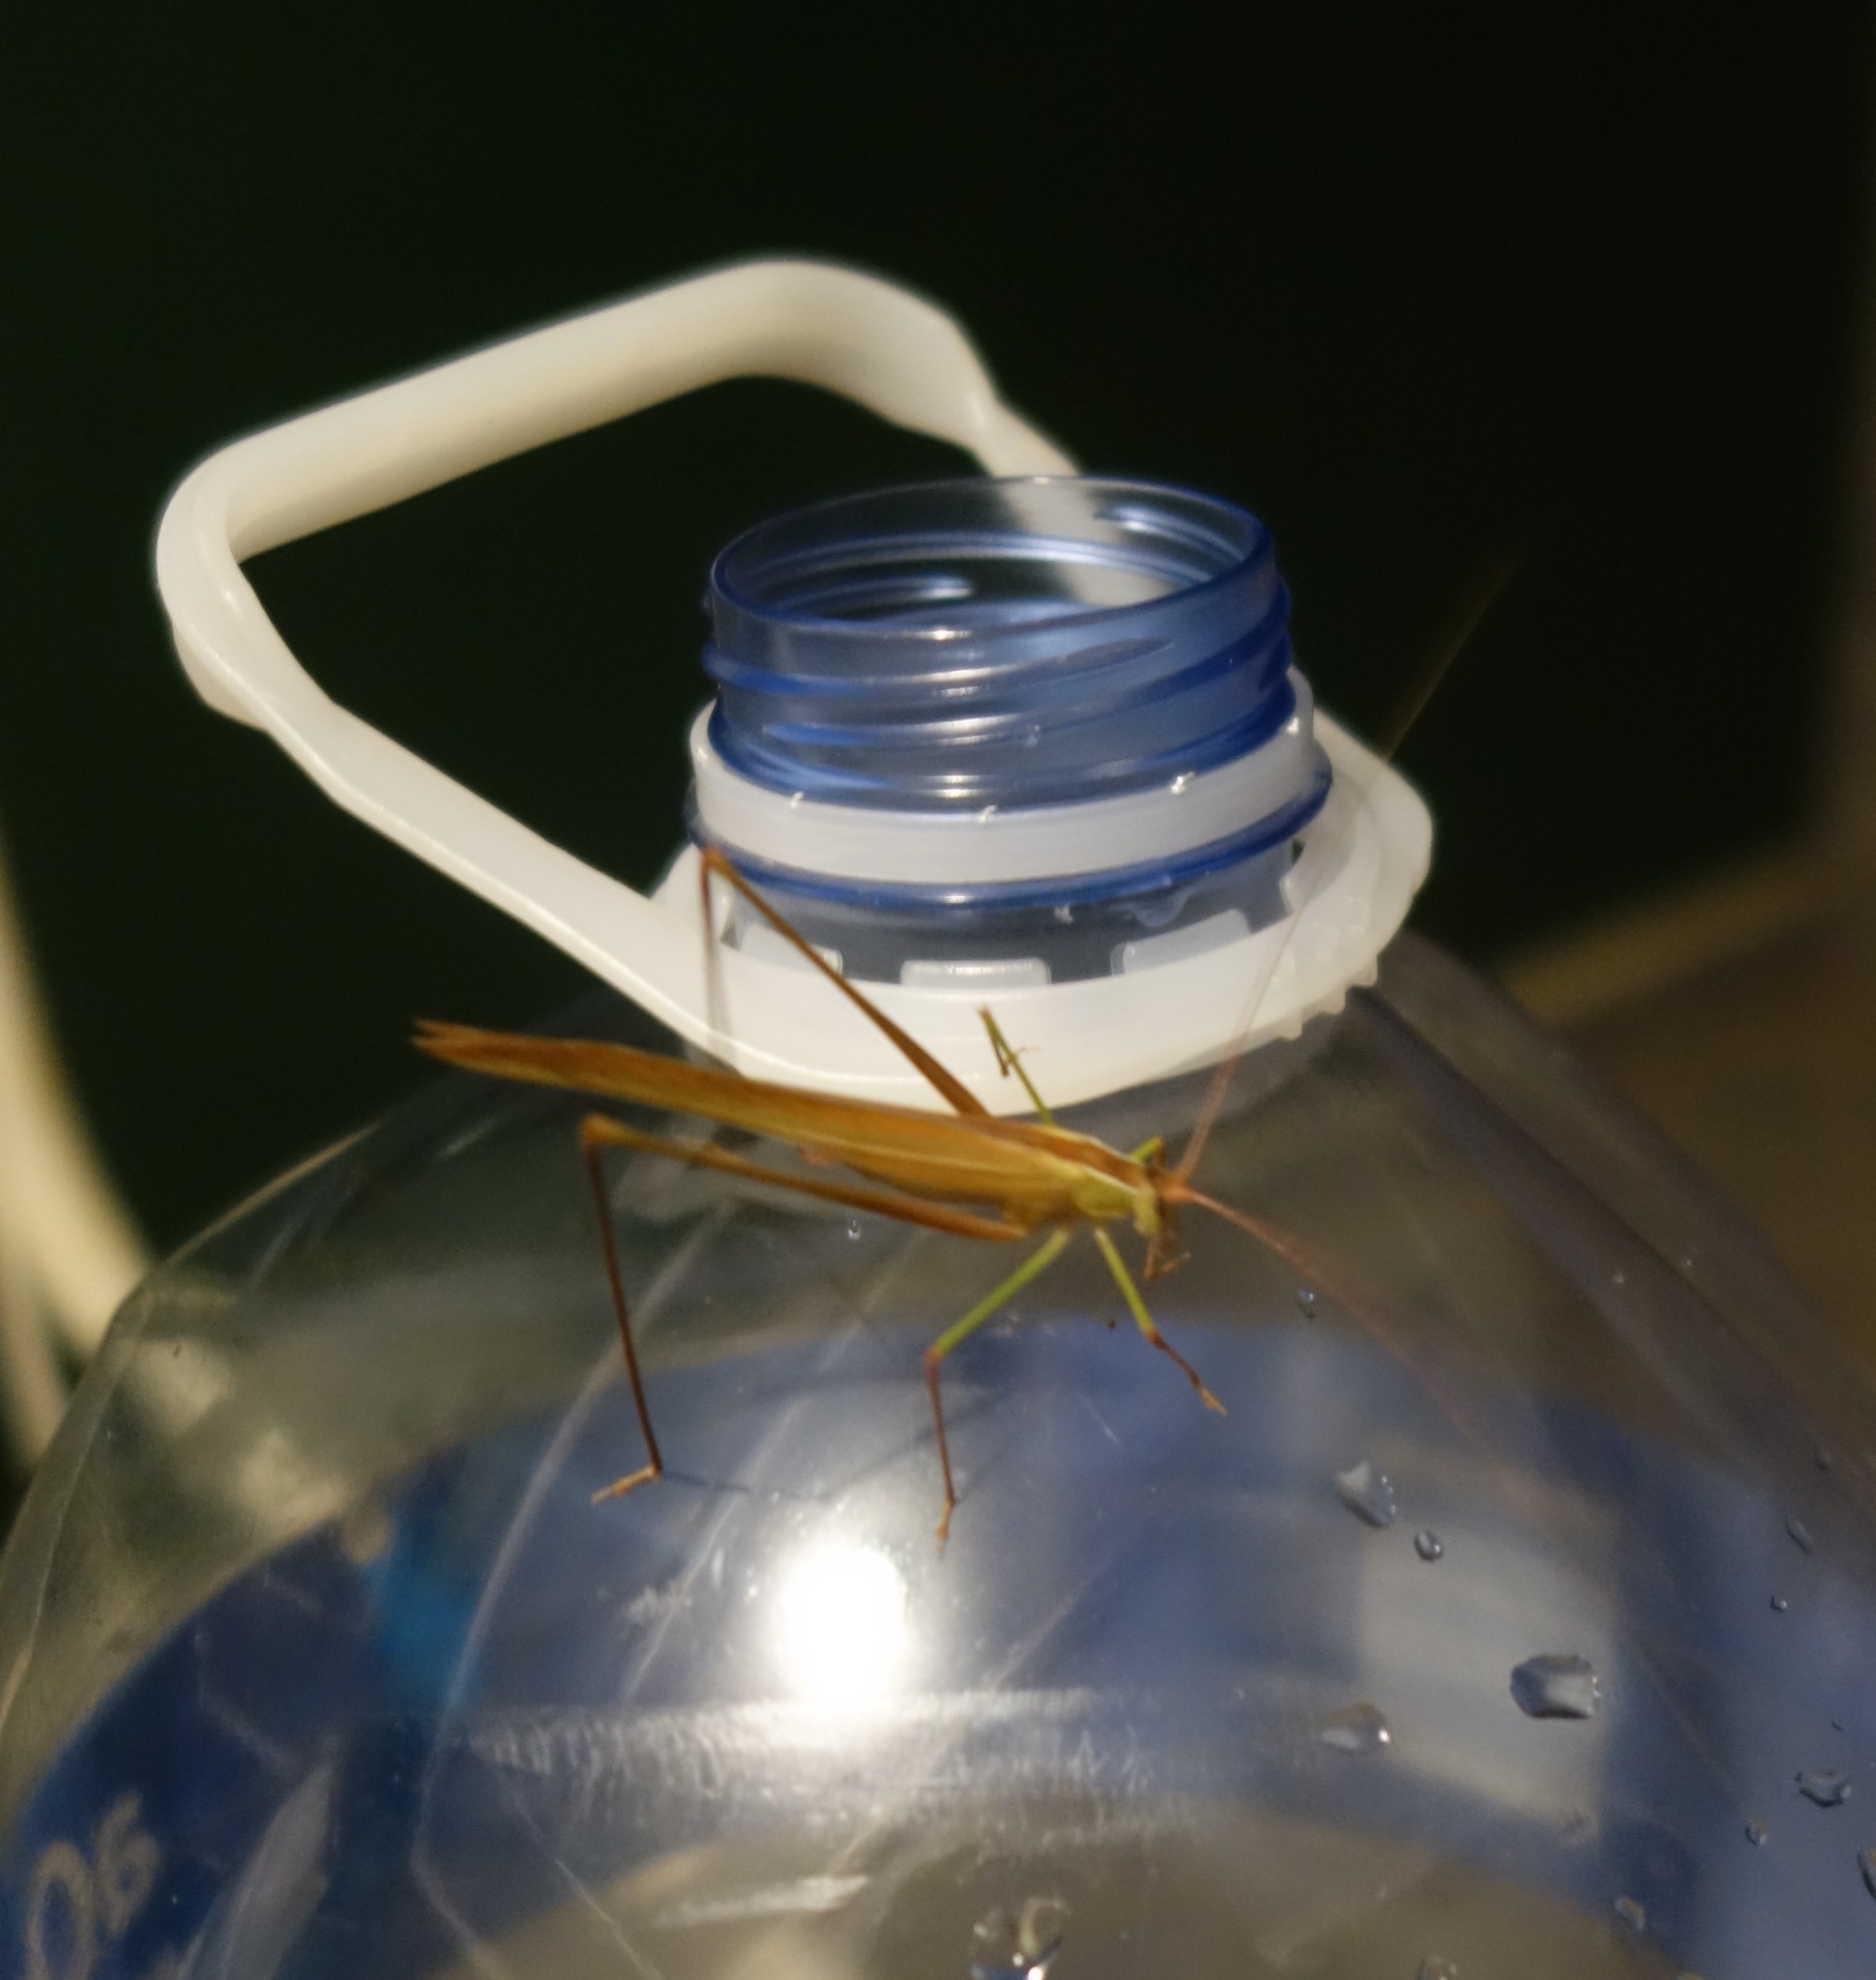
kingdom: Animalia
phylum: Arthropoda
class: Insecta
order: Orthoptera
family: Tettigoniidae
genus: Tylopsis
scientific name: Tylopsis continua
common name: Common grass katydid
